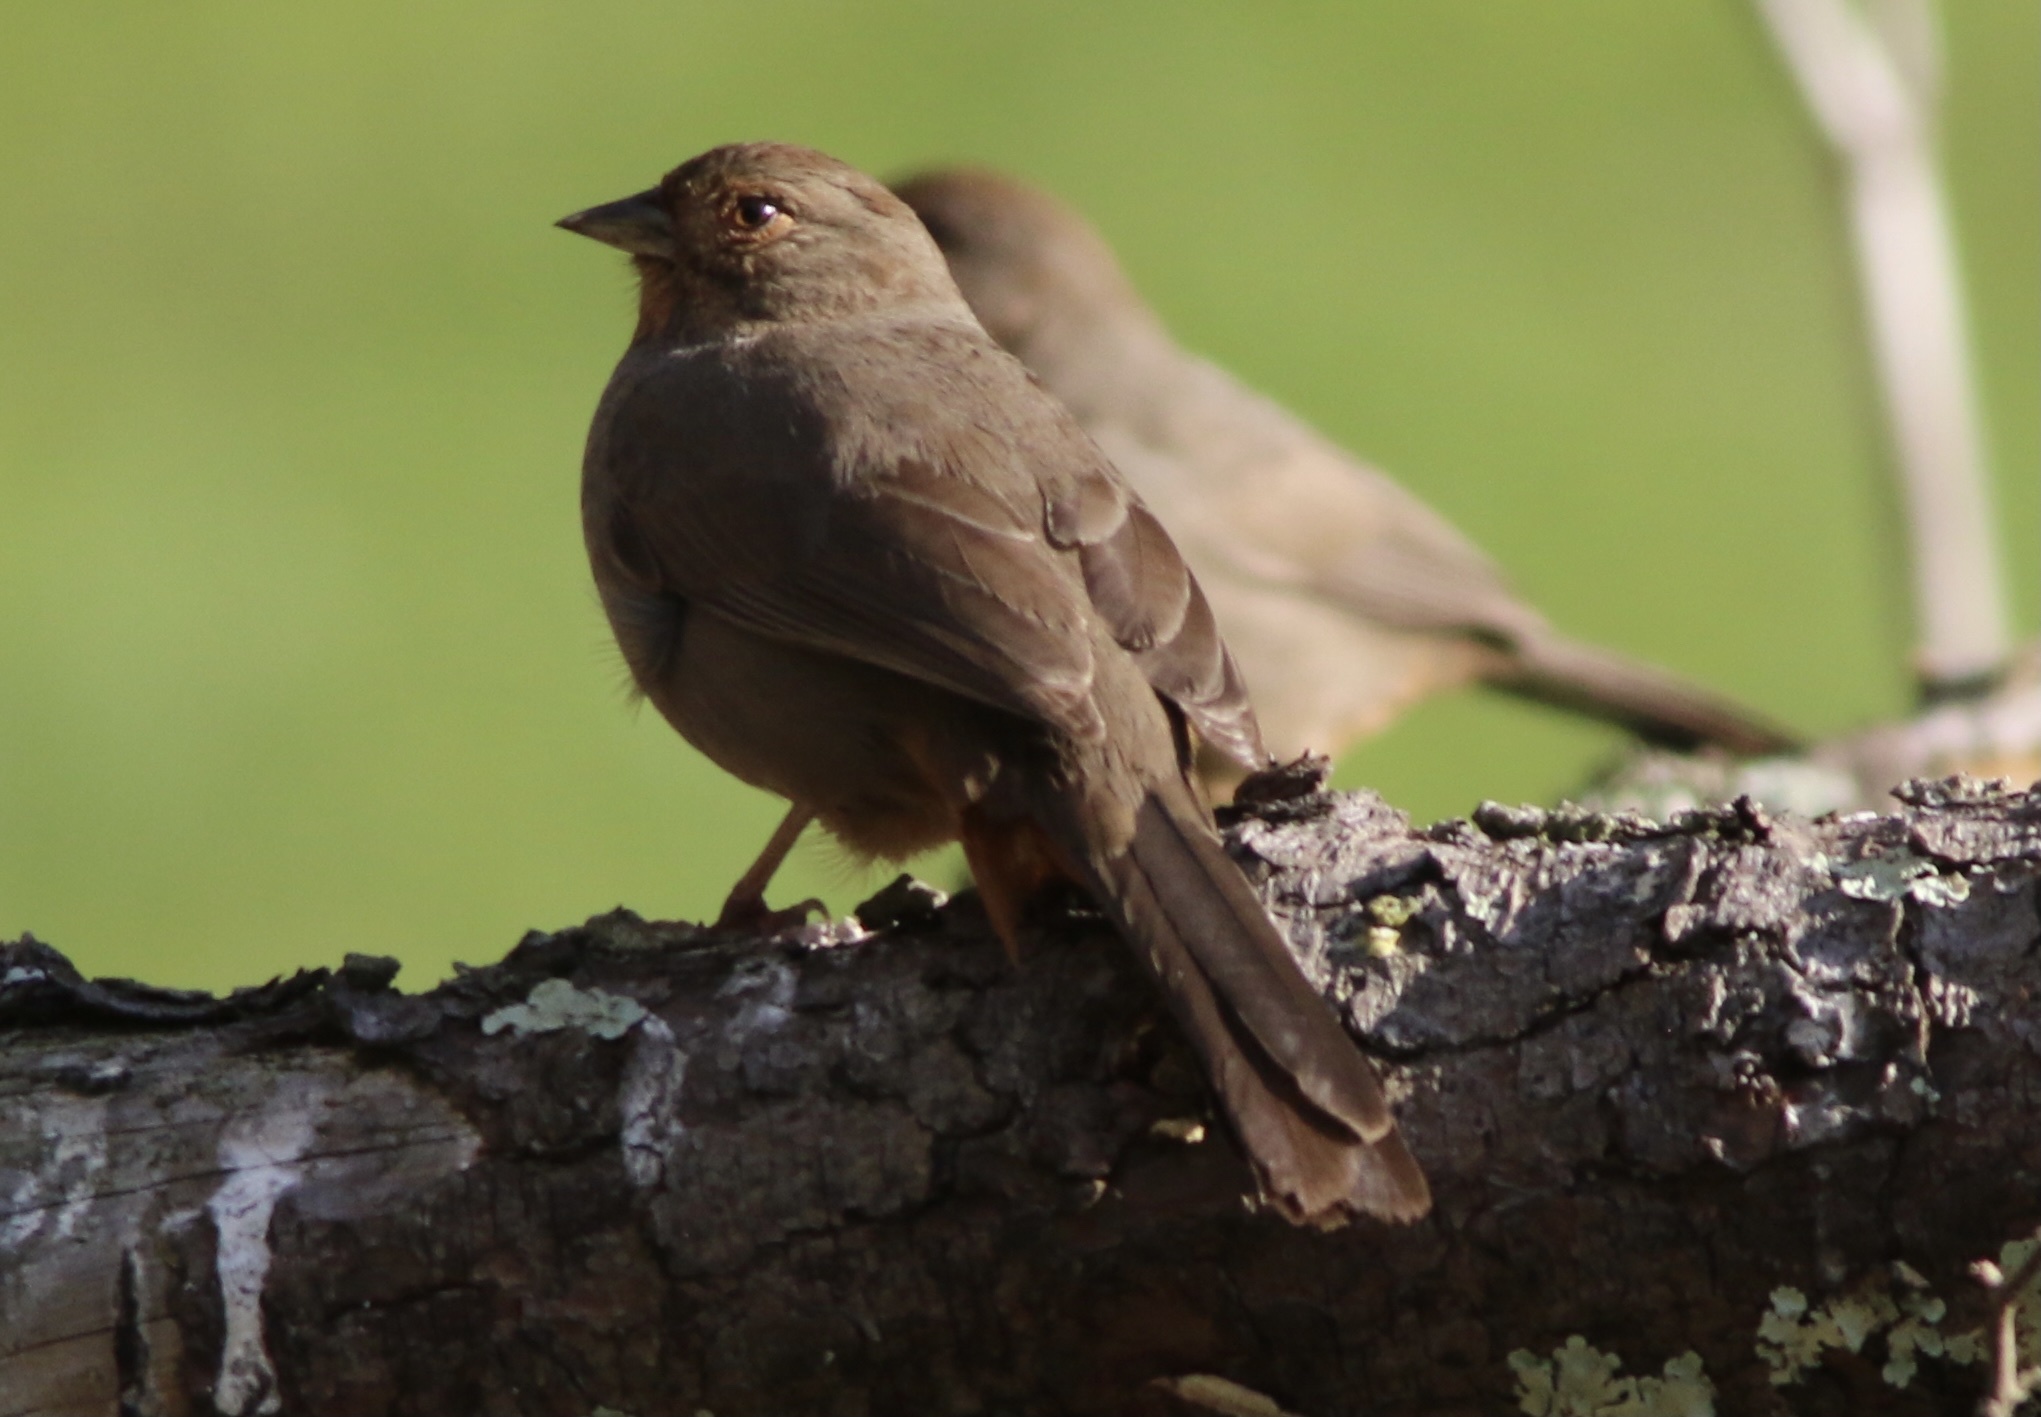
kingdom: Animalia
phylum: Chordata
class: Aves
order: Passeriformes
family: Passerellidae
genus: Melozone
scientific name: Melozone crissalis
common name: California towhee
